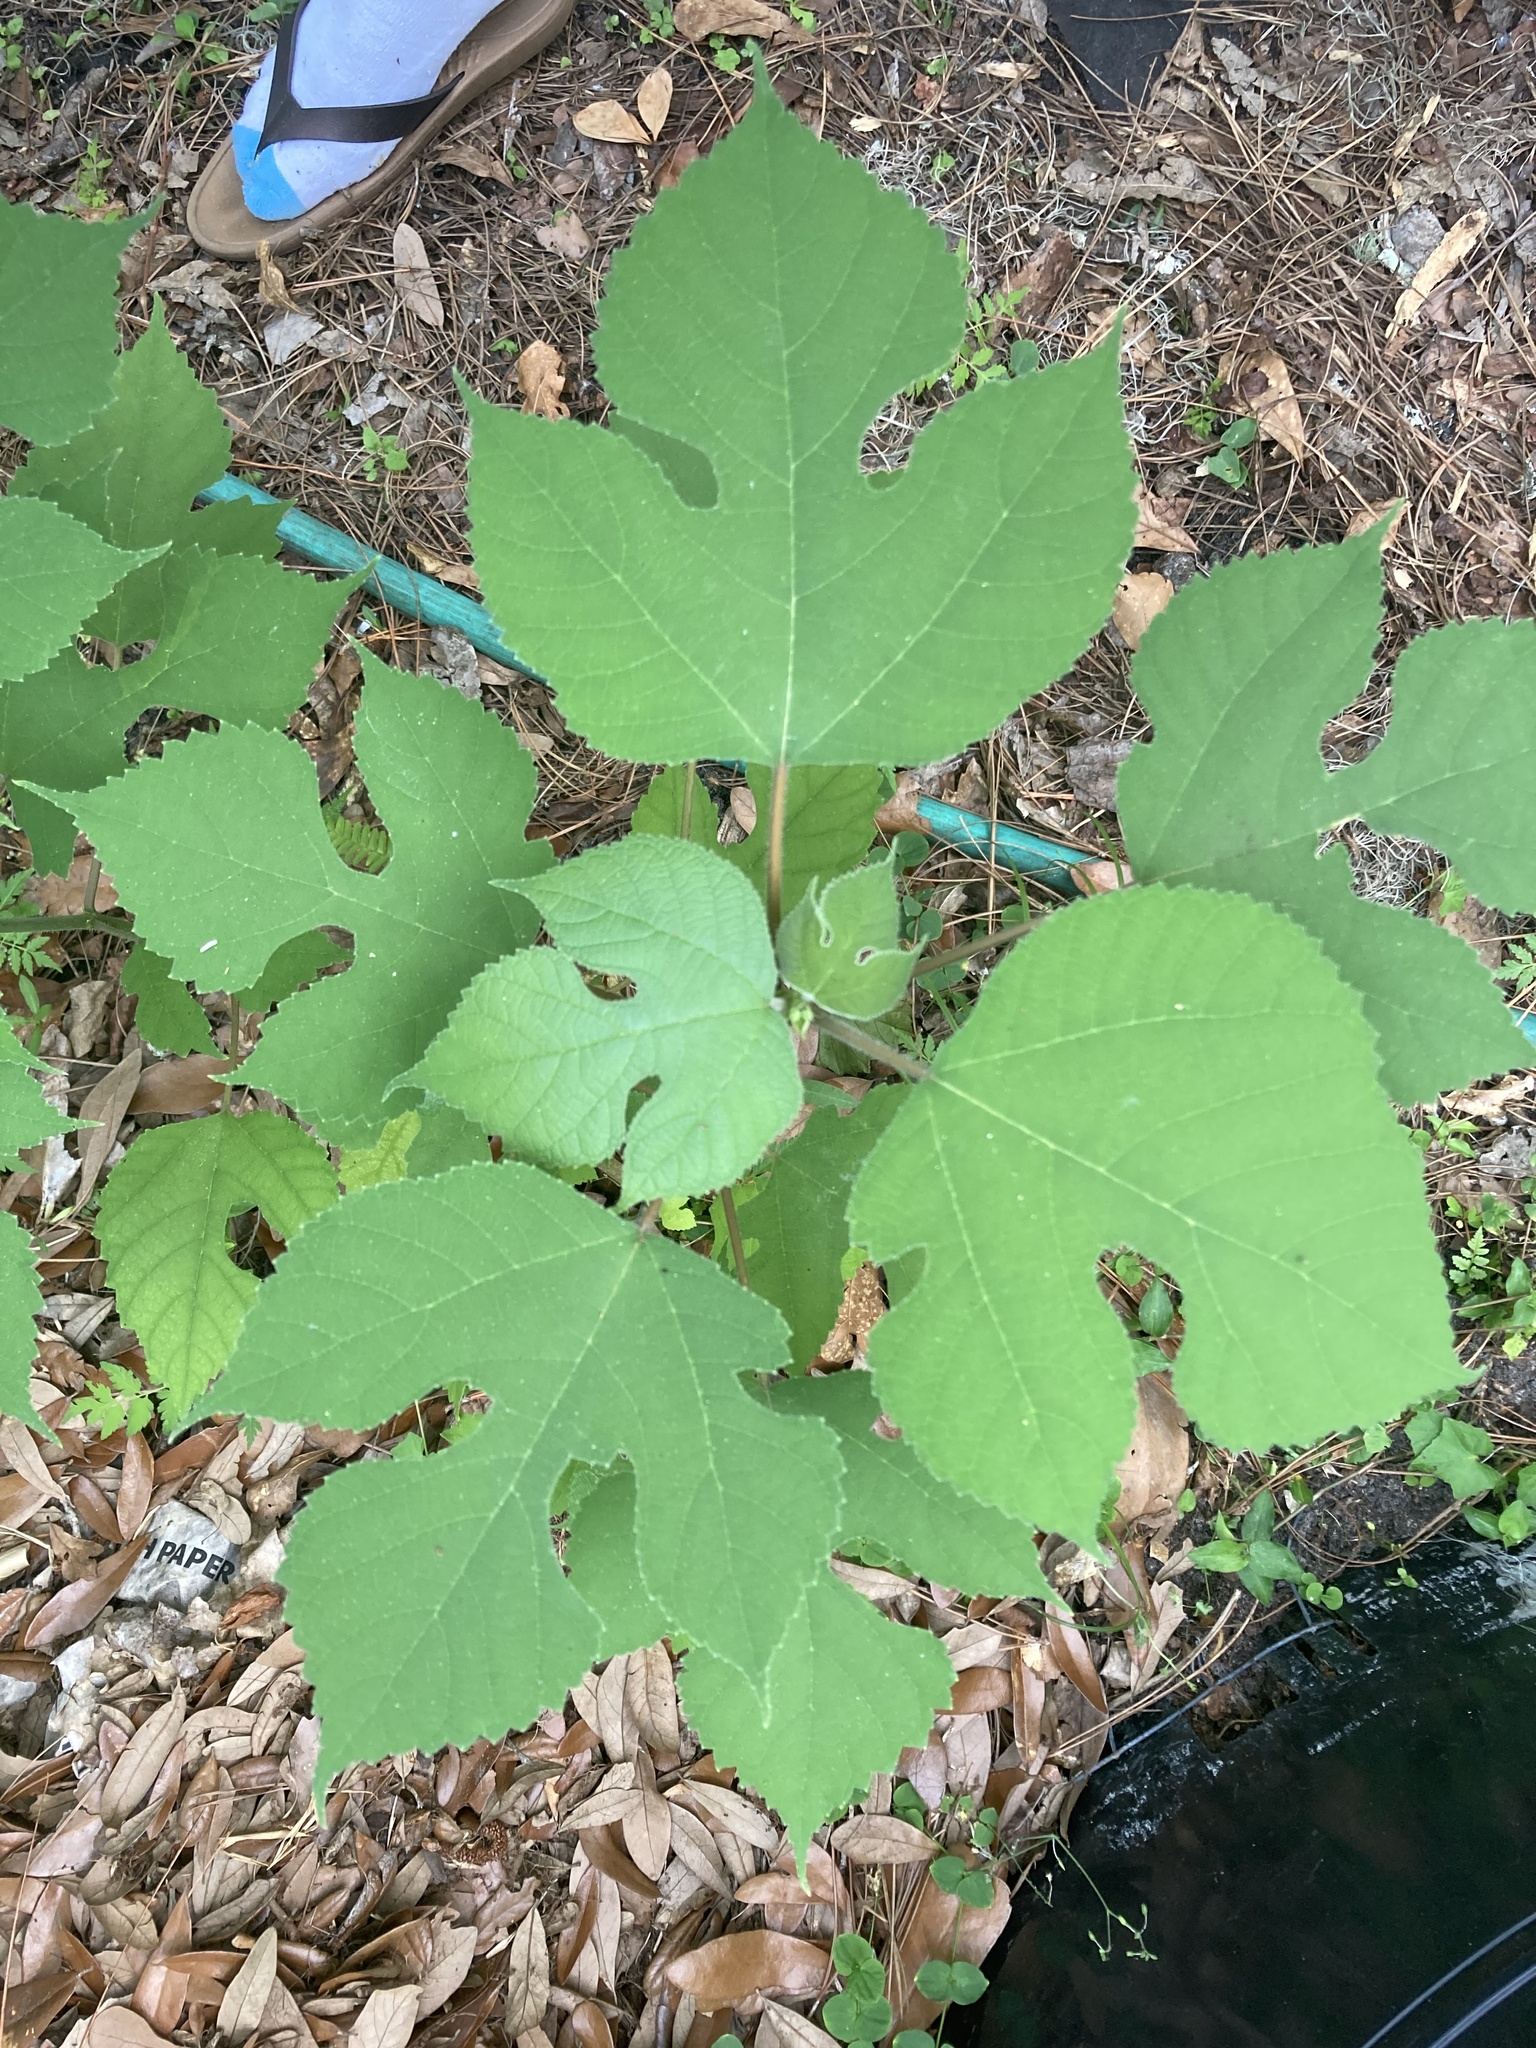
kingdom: Plantae
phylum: Tracheophyta
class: Magnoliopsida
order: Rosales
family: Moraceae
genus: Broussonetia
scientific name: Broussonetia papyrifera
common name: Paper mulberry
